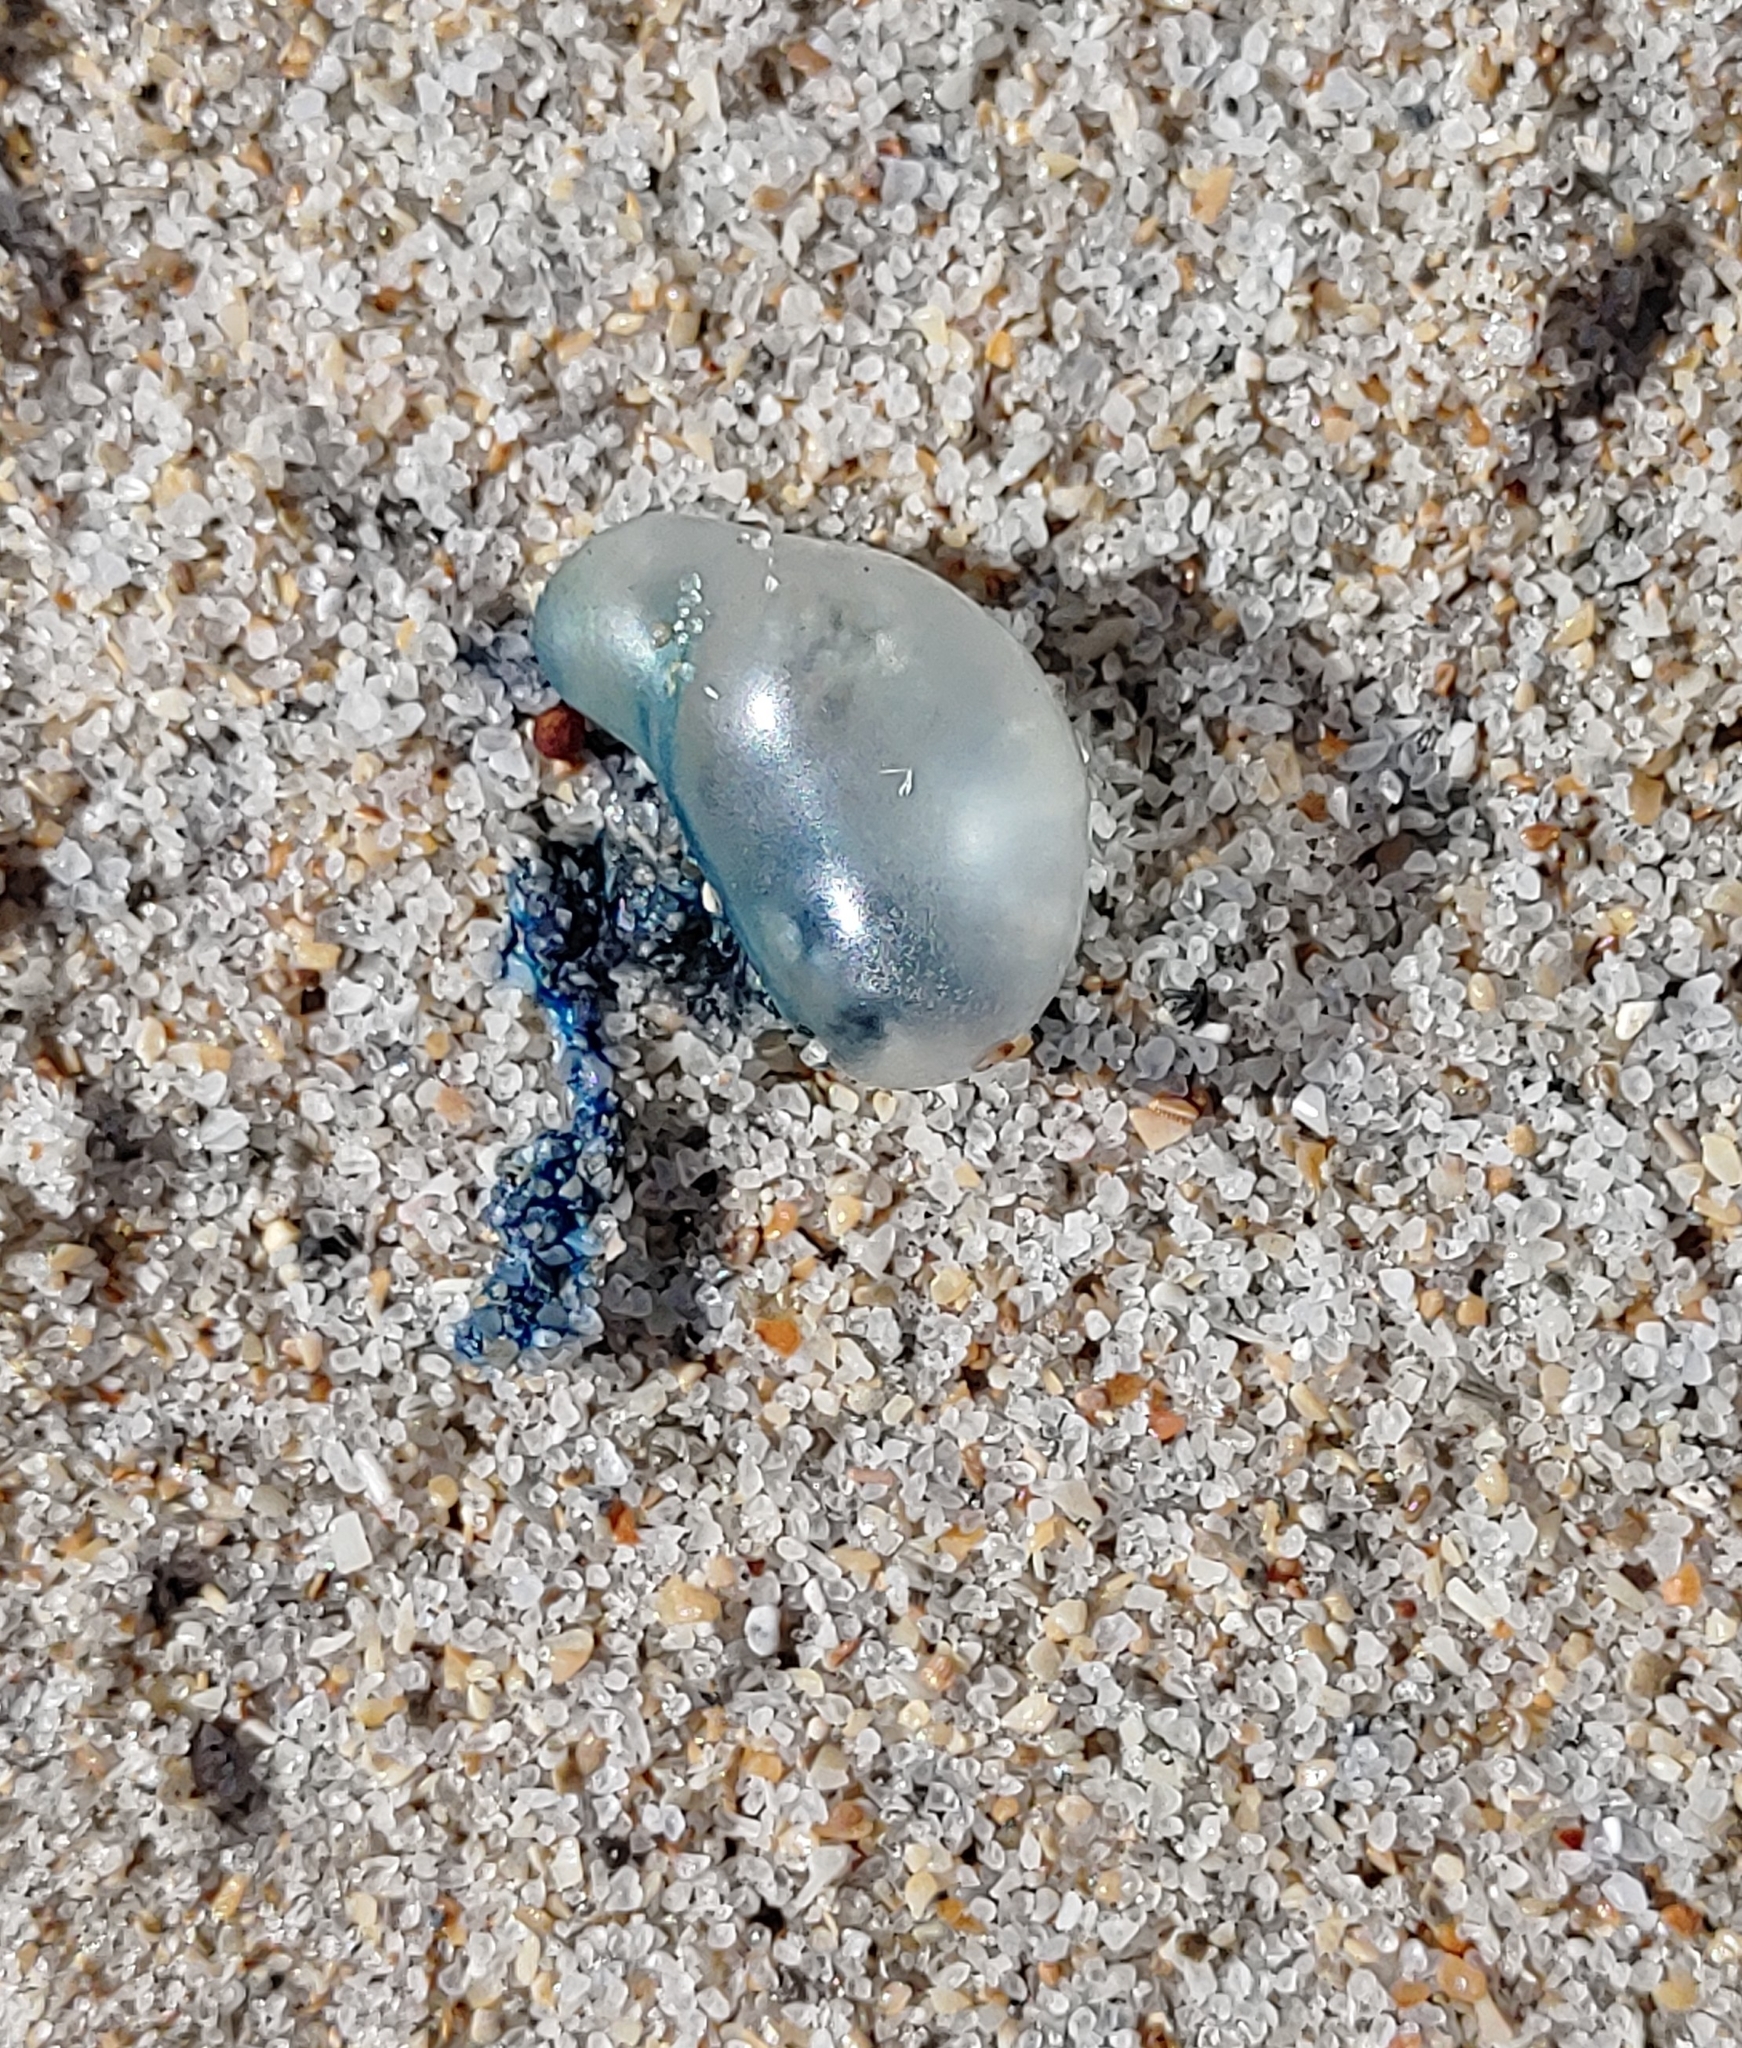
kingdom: Animalia
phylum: Cnidaria
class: Hydrozoa
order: Siphonophorae
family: Physaliidae
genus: Physalia
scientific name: Physalia physalis
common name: Portuguese man-of-war
